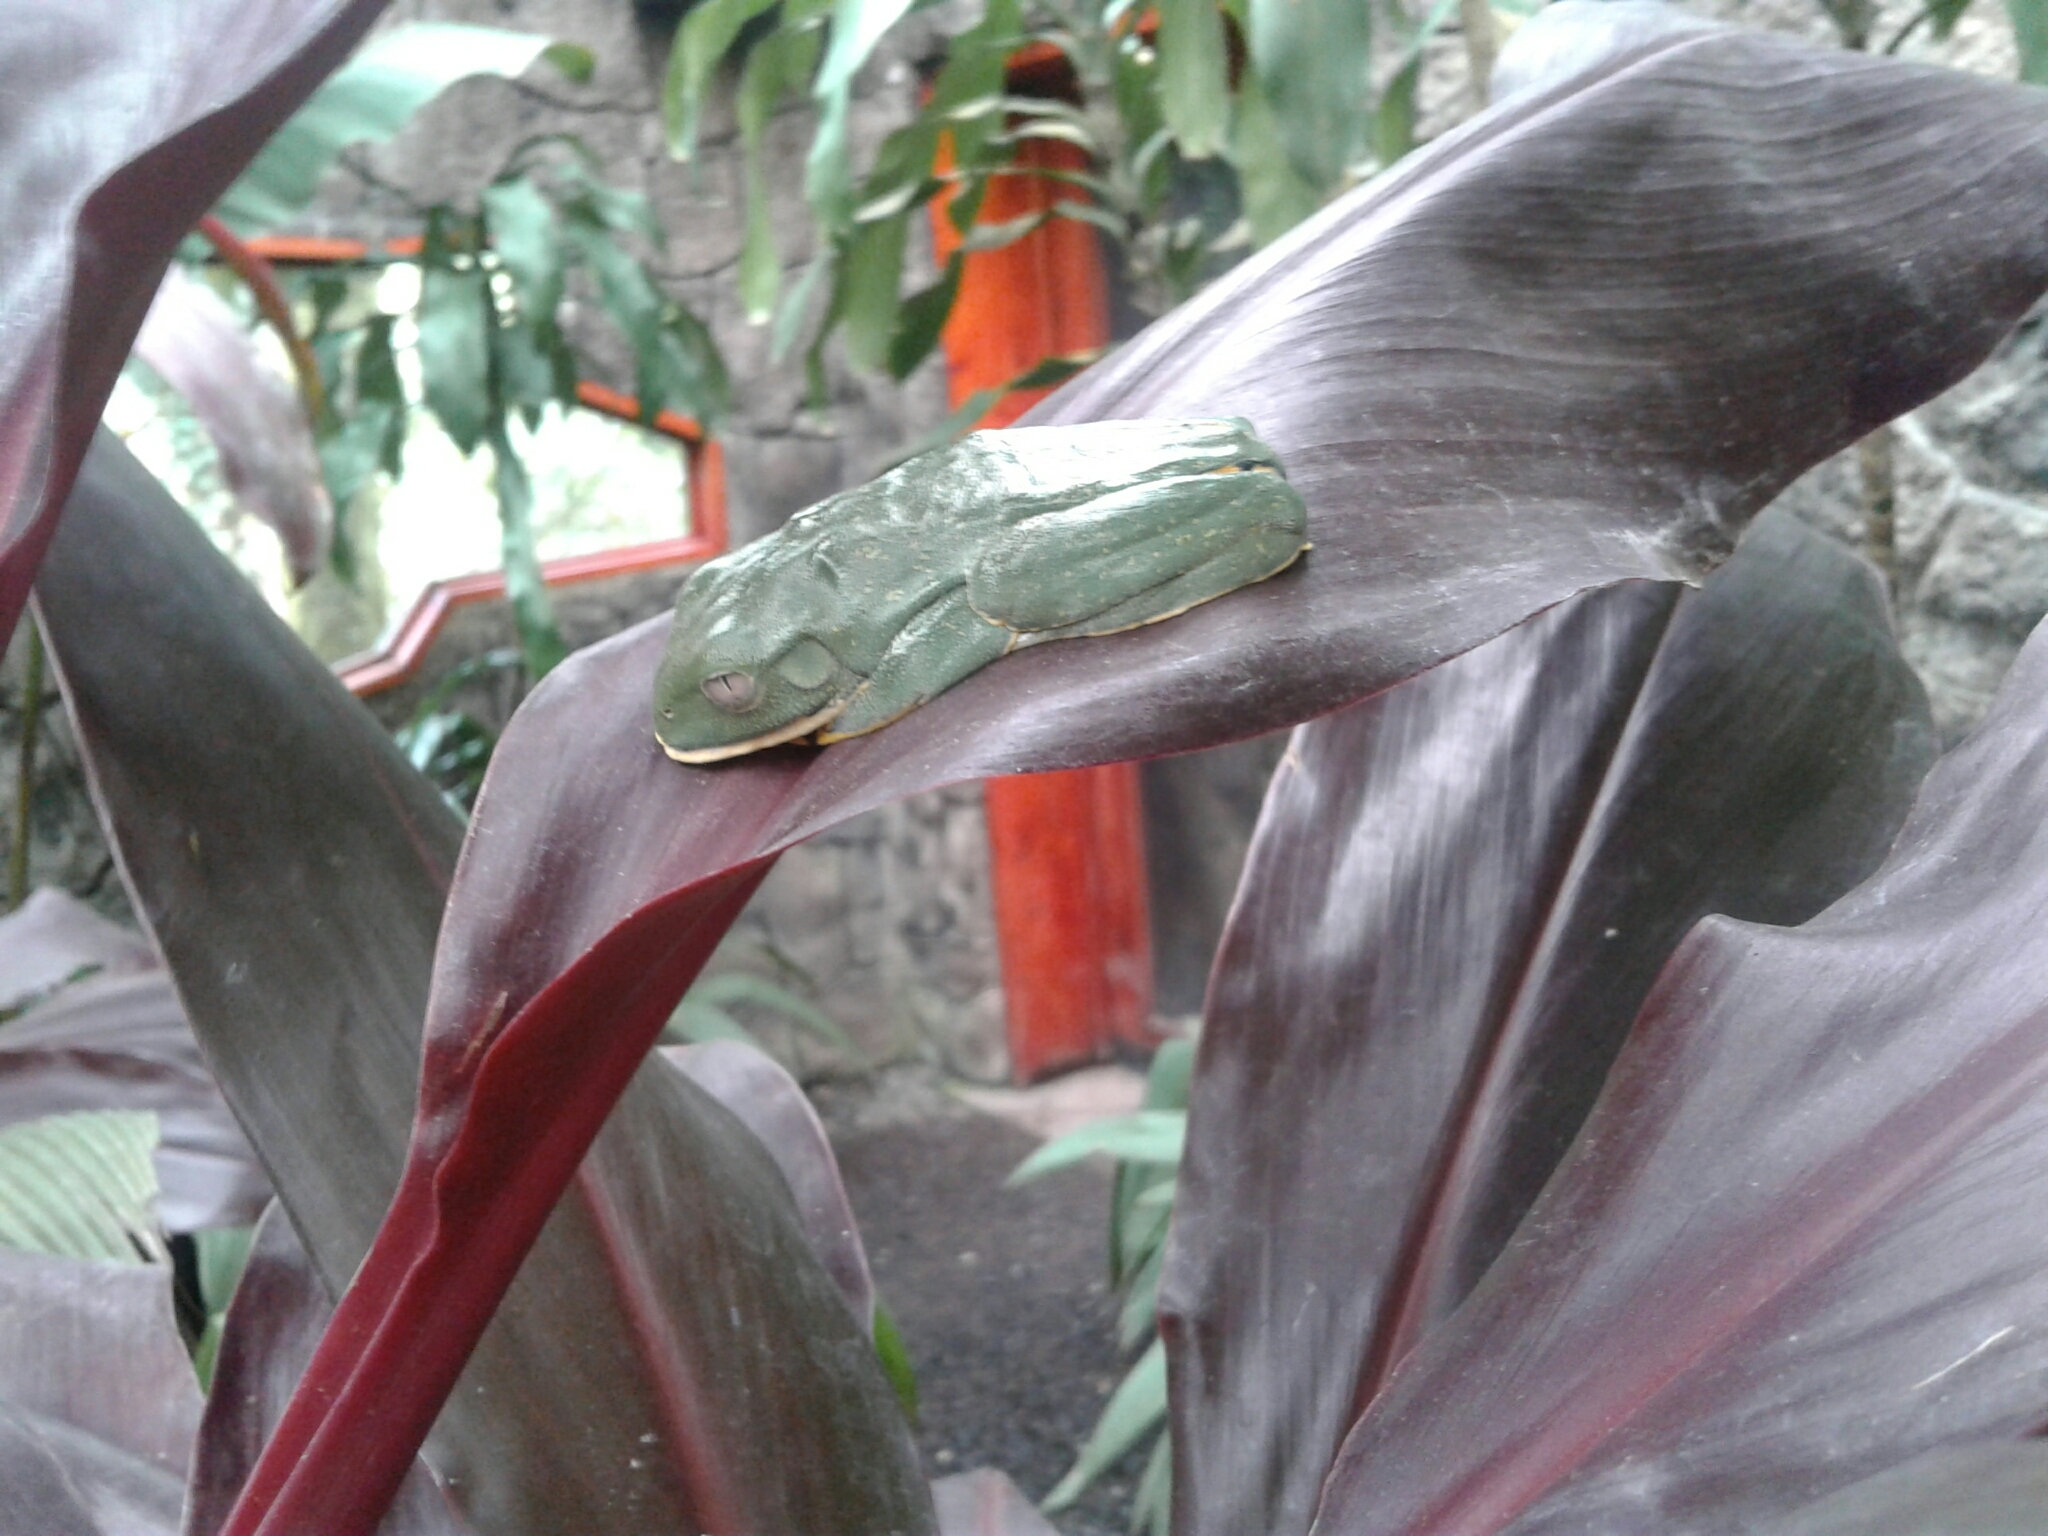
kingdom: Animalia
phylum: Chordata
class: Amphibia
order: Anura
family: Phyllomedusidae
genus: Cruziohyla
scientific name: Cruziohyla sylviae
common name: Sylvia's tree frog
